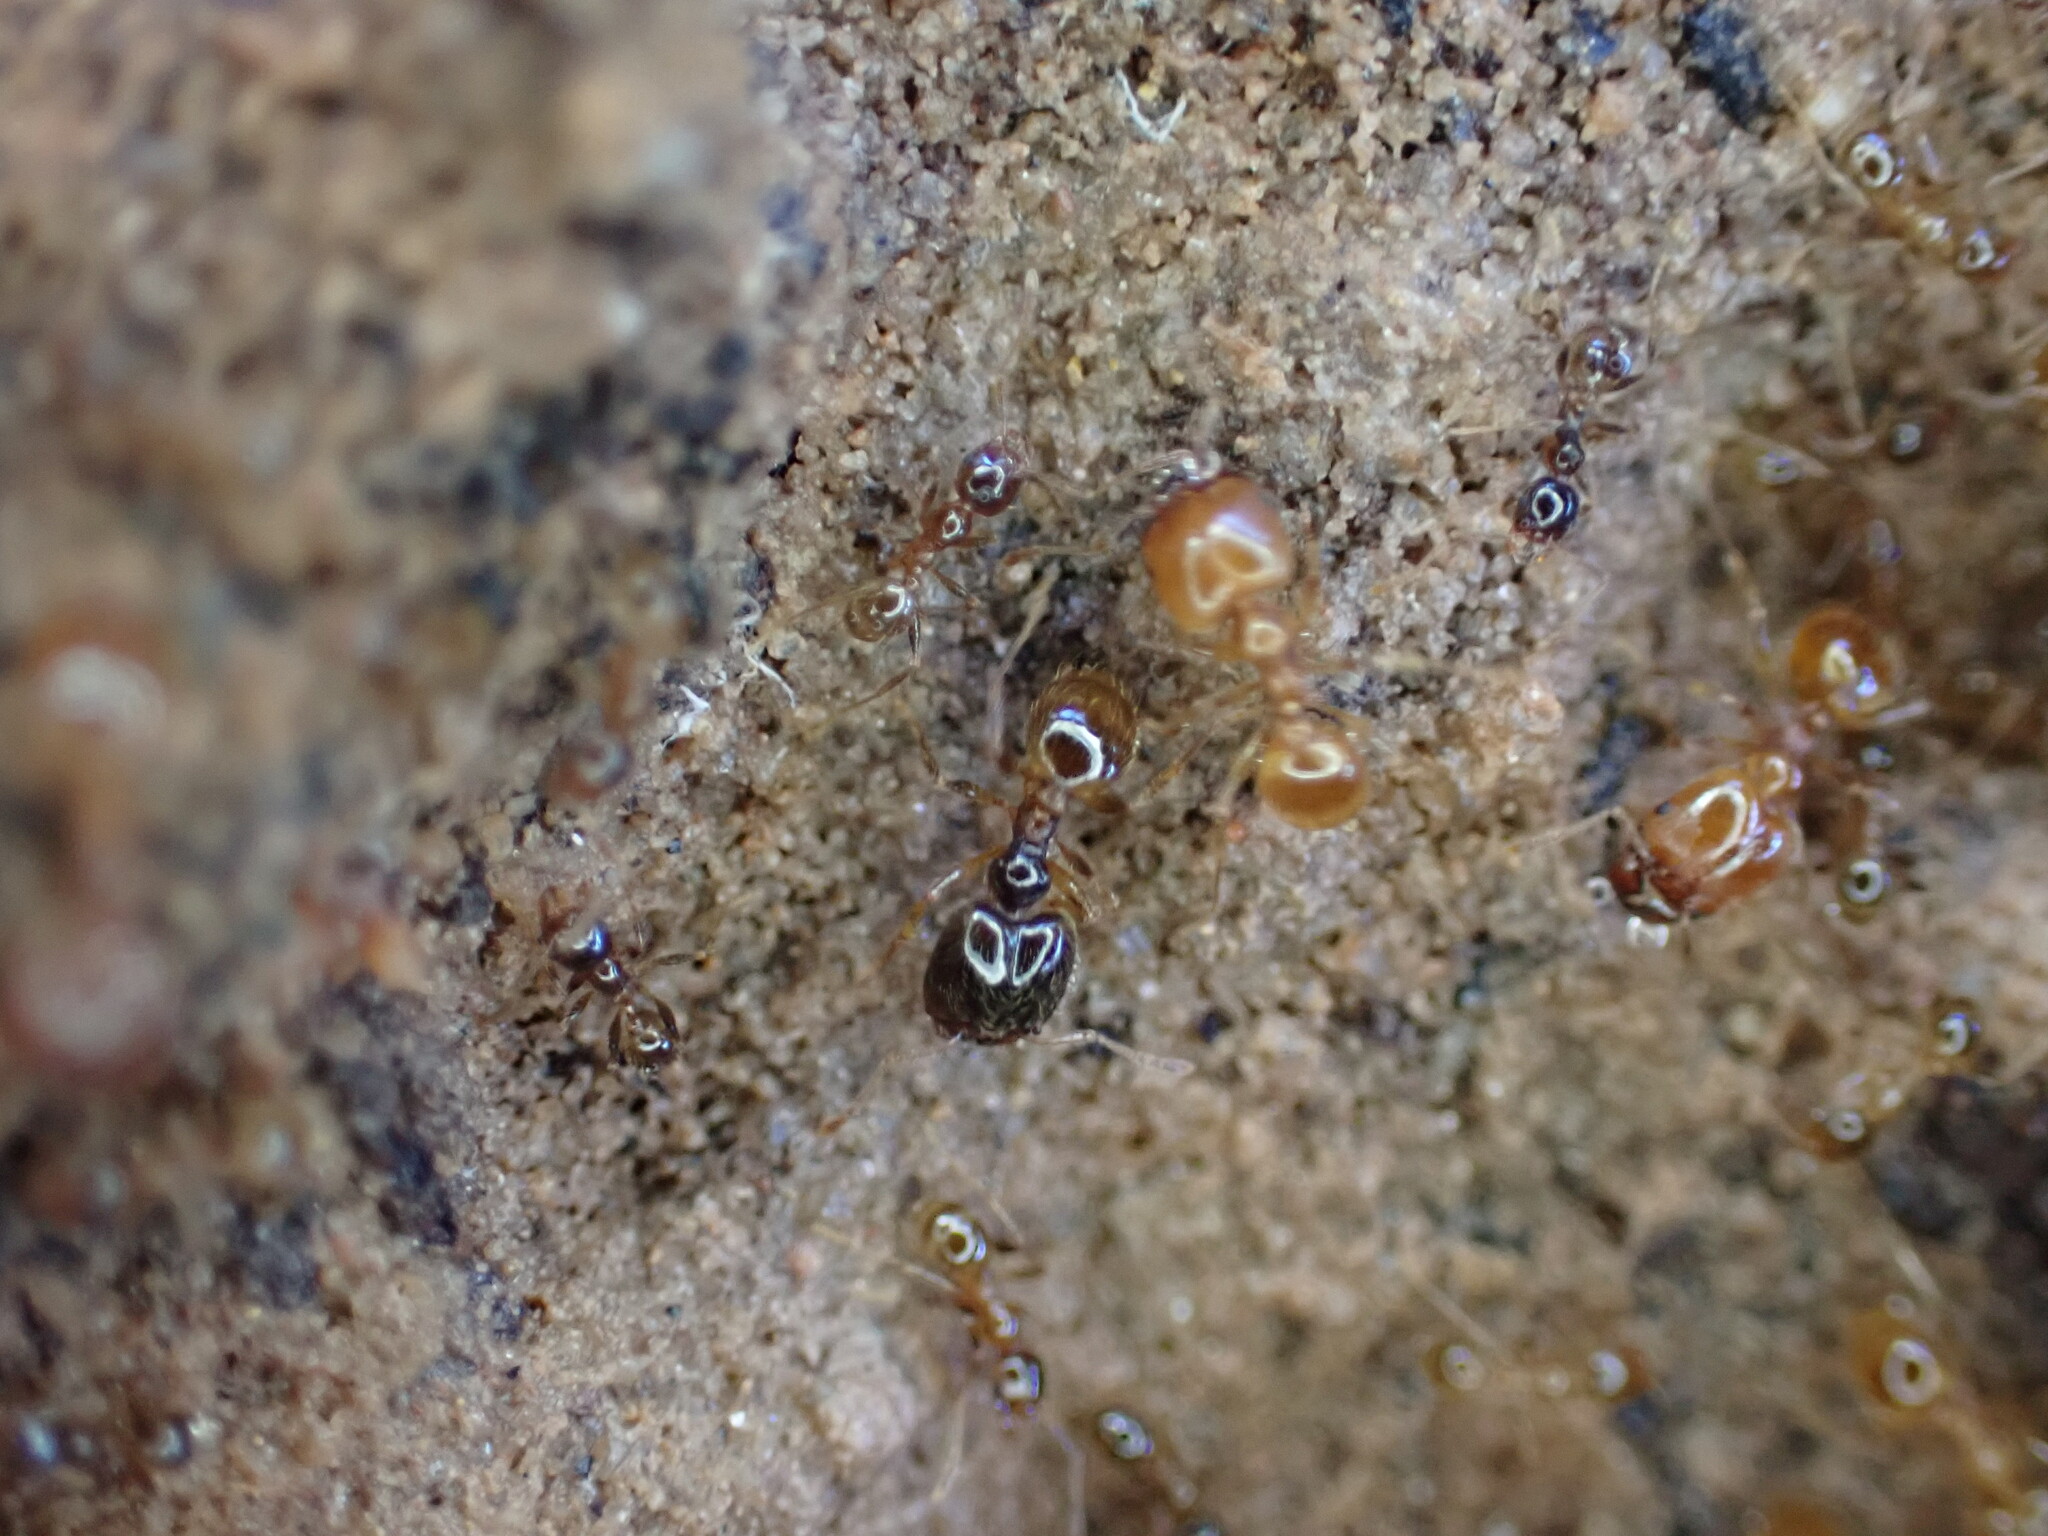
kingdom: Animalia
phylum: Arthropoda
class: Insecta
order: Hymenoptera
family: Formicidae
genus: Pheidole
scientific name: Pheidole pallidula
